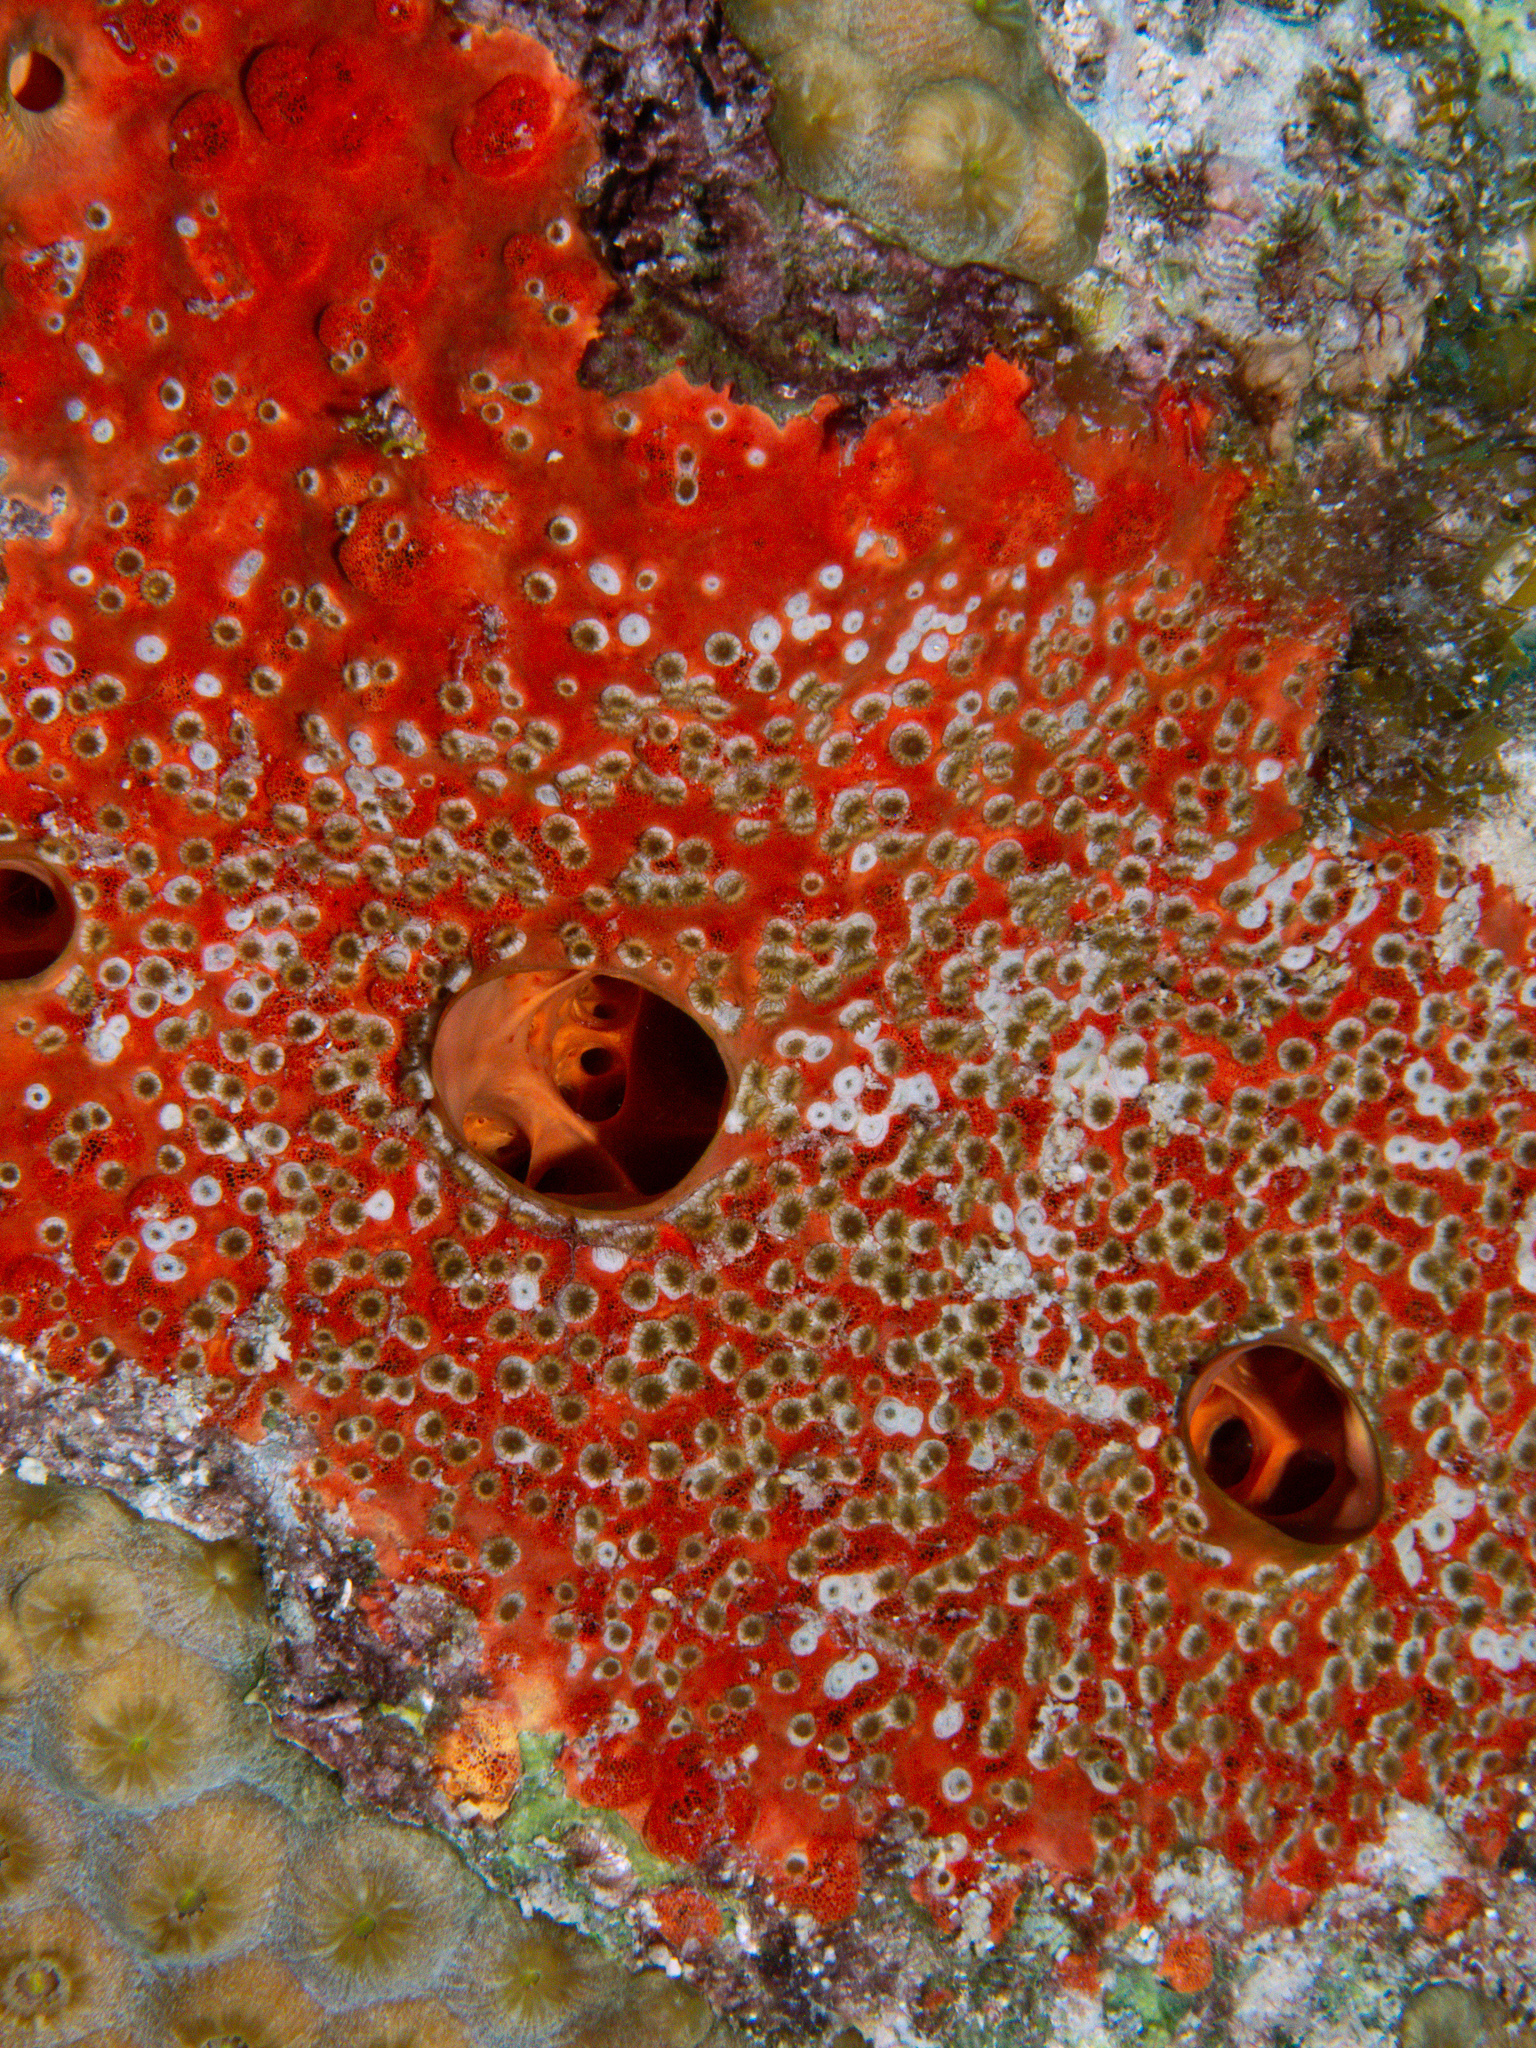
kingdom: Animalia
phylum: Porifera
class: Demospongiae
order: Clionaida
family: Clionaidae
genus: Cliothosa
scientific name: Cliothosa delitrix
